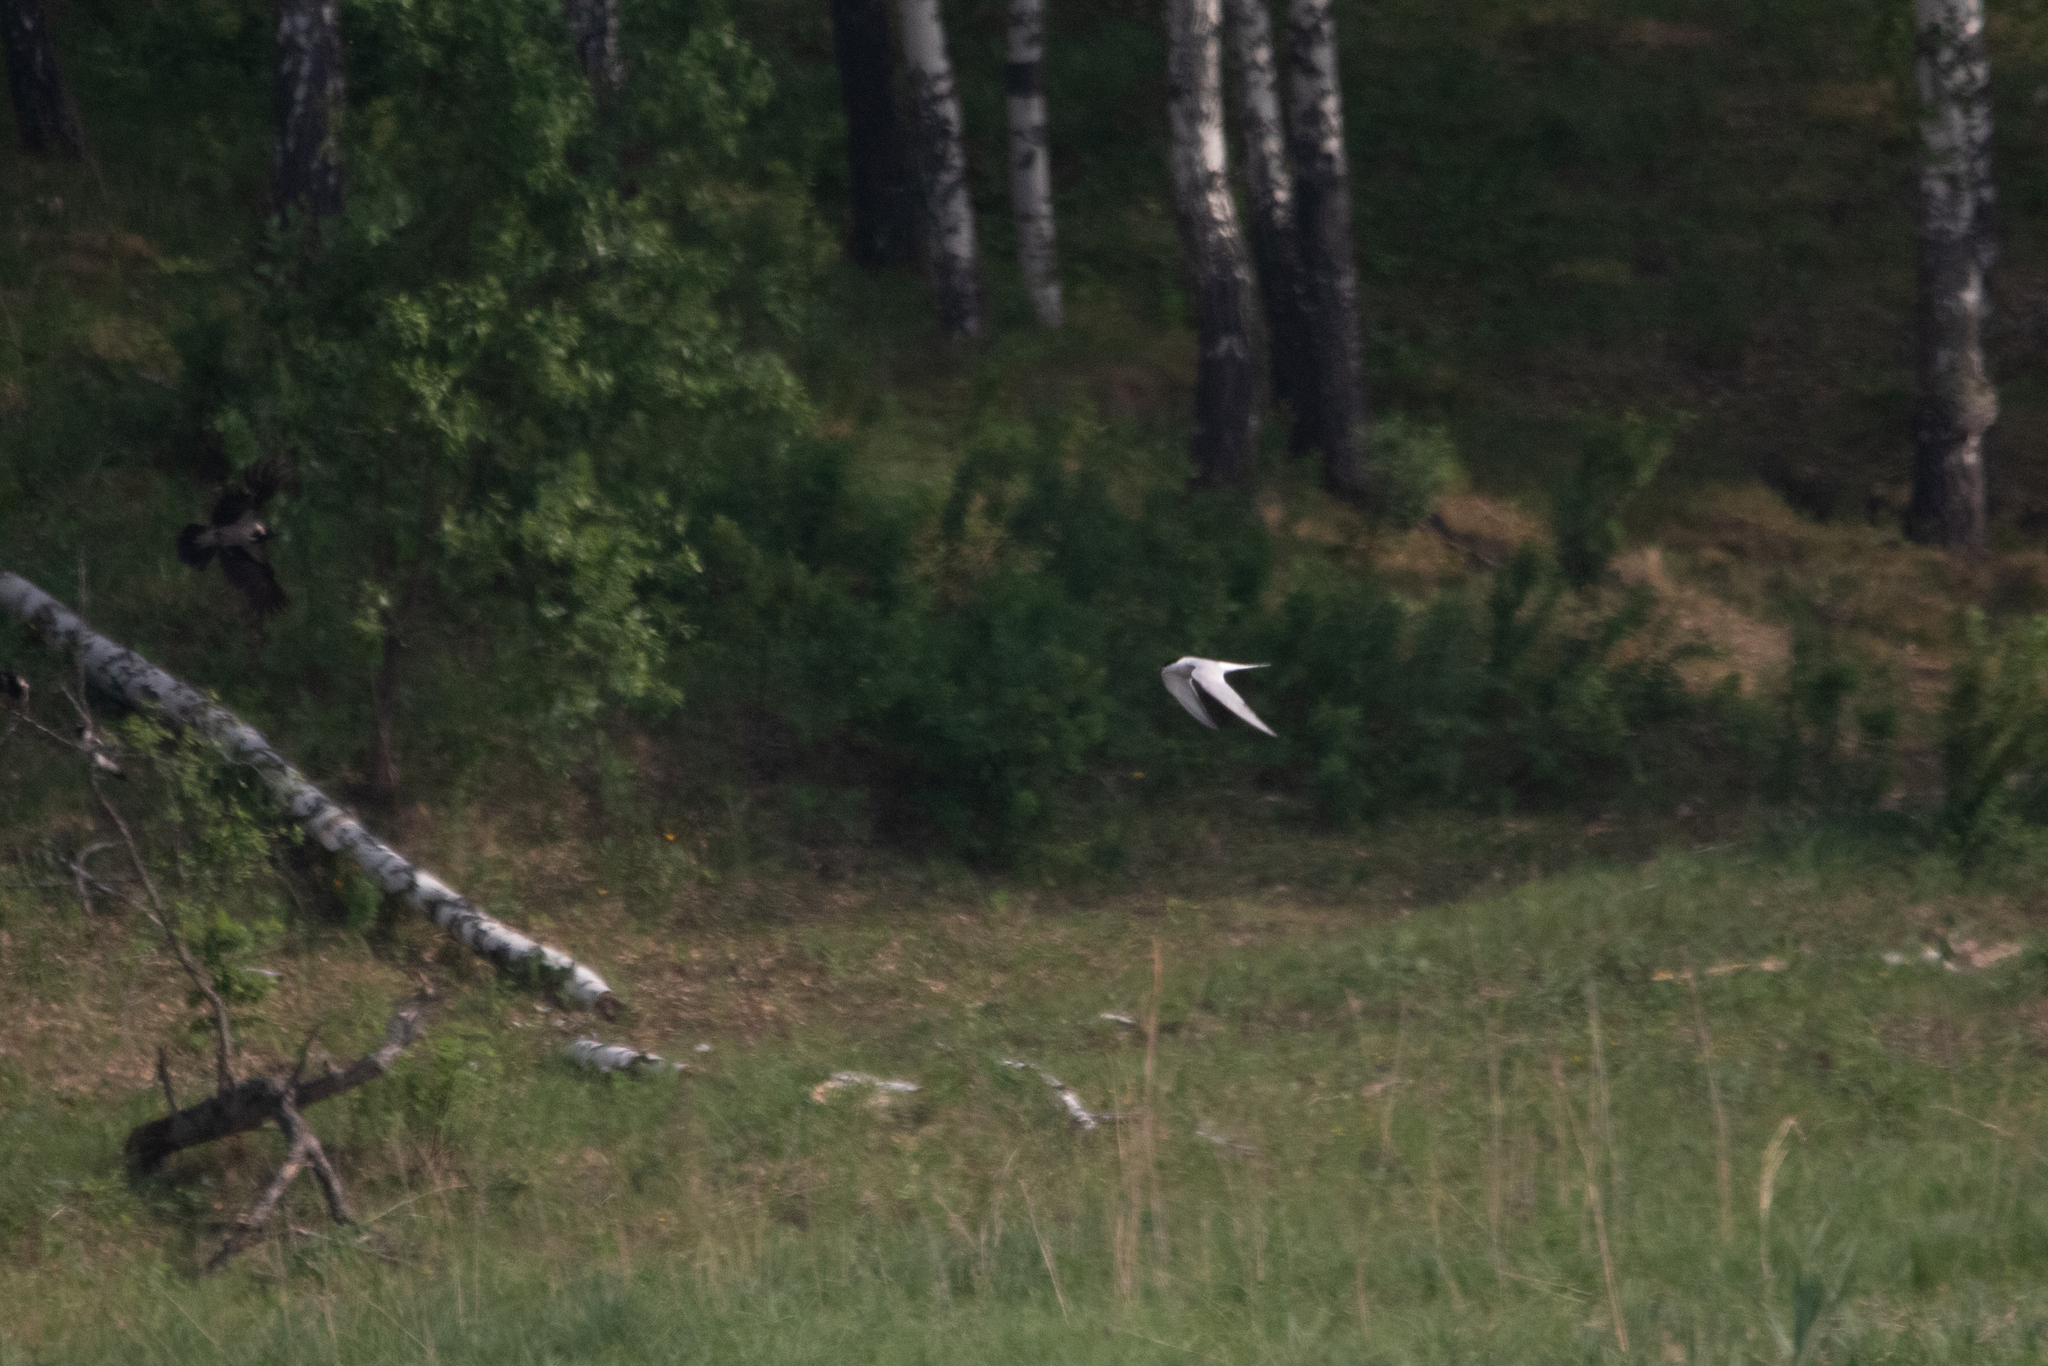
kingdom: Animalia
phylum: Chordata
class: Aves
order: Charadriiformes
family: Laridae
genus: Sterna
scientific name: Sterna hirundo
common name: Common tern
